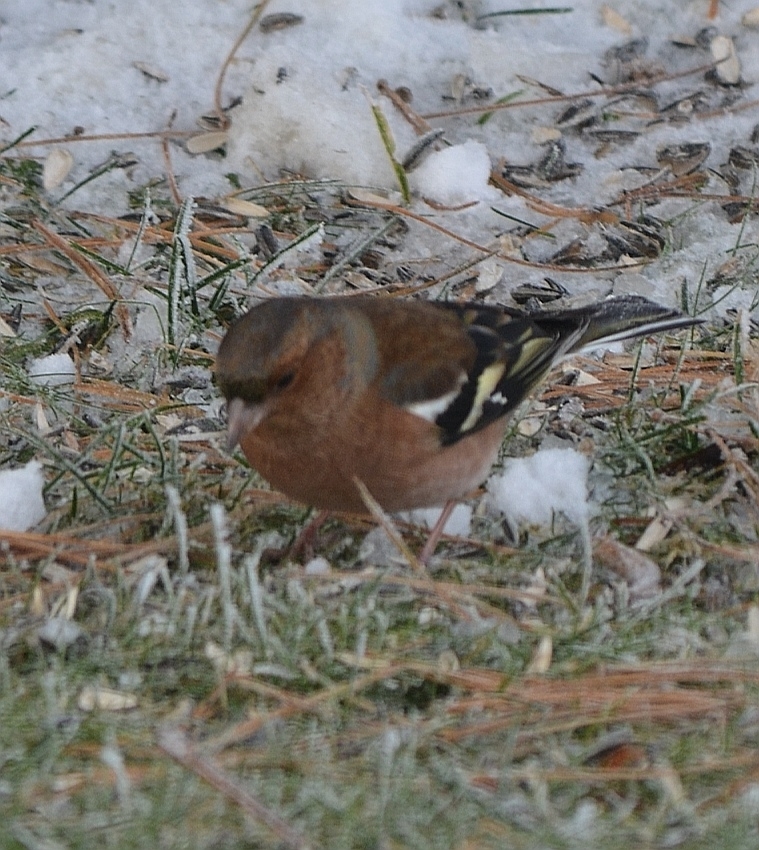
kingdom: Animalia
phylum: Chordata
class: Aves
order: Passeriformes
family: Fringillidae
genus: Fringilla
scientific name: Fringilla coelebs
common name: Common chaffinch
